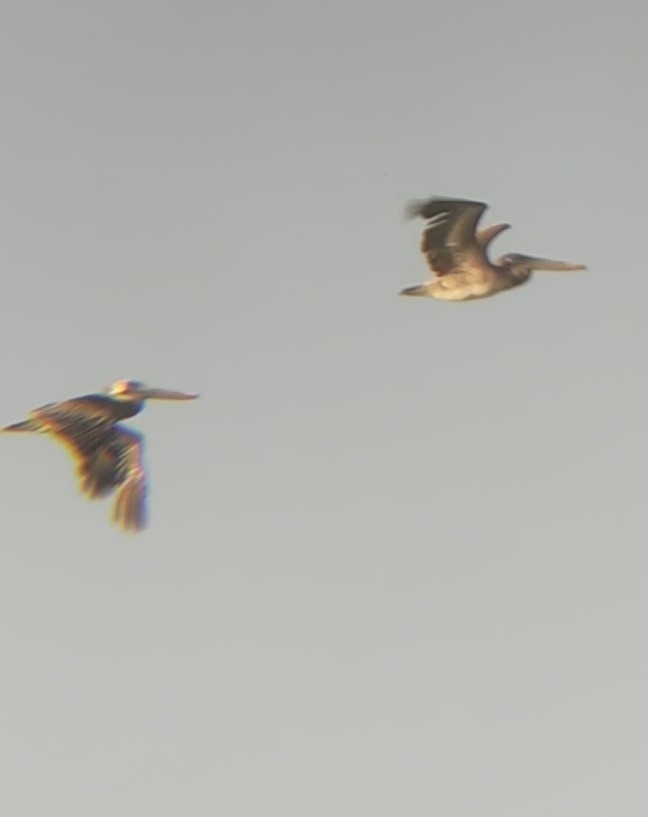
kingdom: Animalia
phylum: Chordata
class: Aves
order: Pelecaniformes
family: Pelecanidae
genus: Pelecanus
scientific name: Pelecanus occidentalis
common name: Brown pelican
